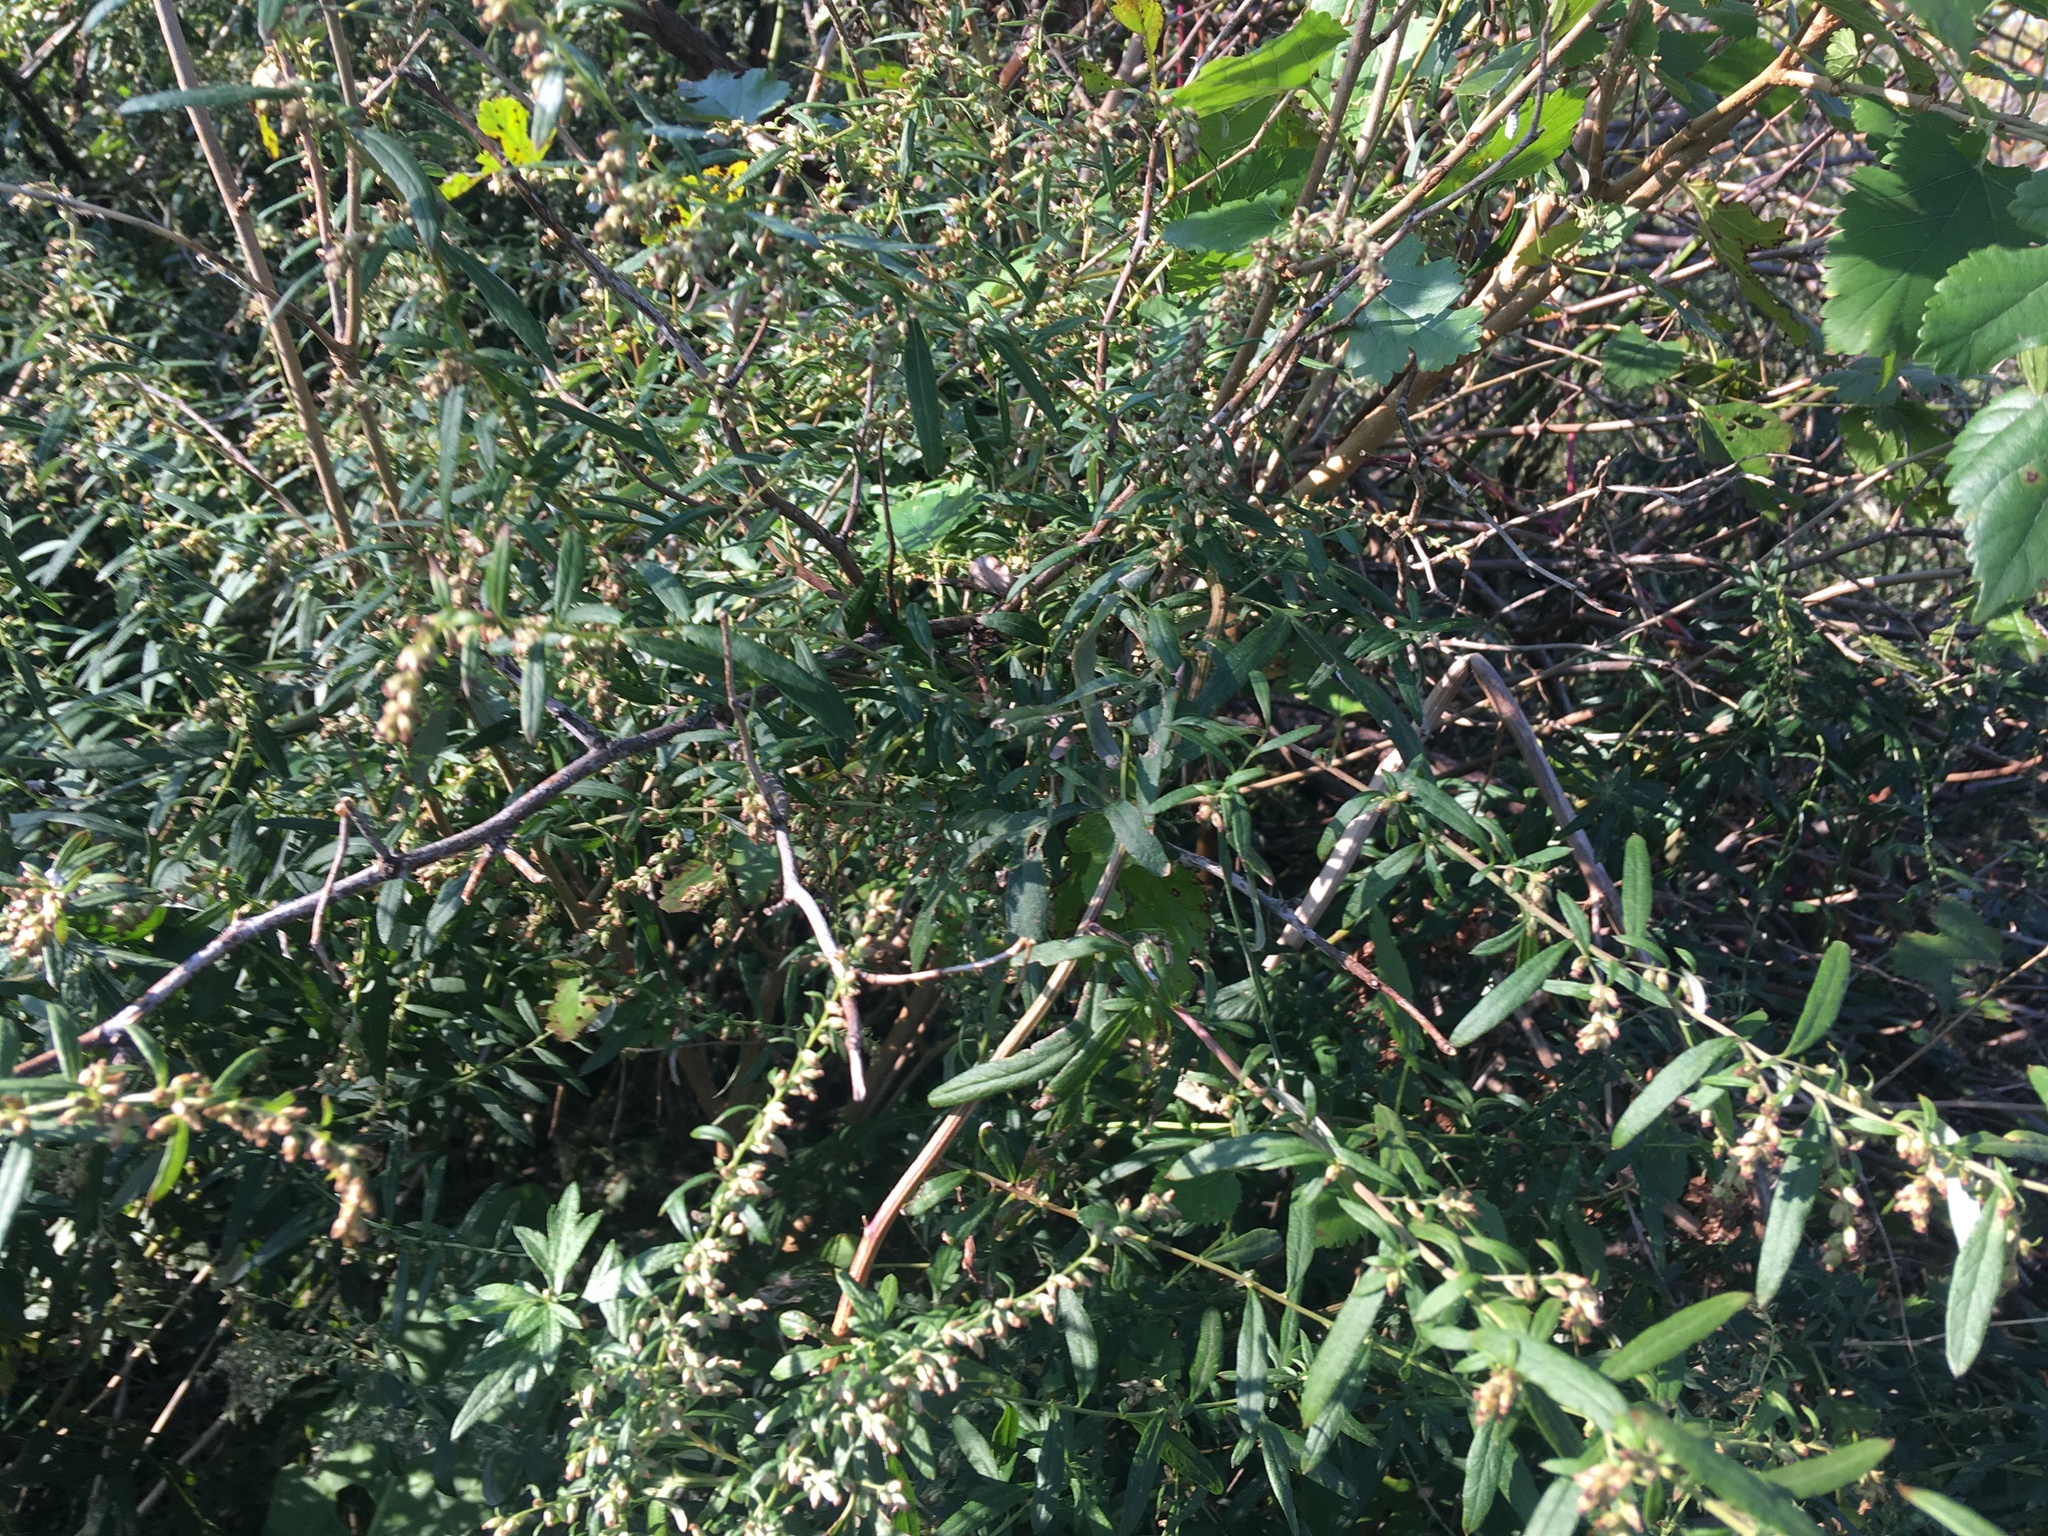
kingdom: Plantae
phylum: Tracheophyta
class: Magnoliopsida
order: Asterales
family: Asteraceae
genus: Artemisia
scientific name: Artemisia vulgaris
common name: Mugwort
